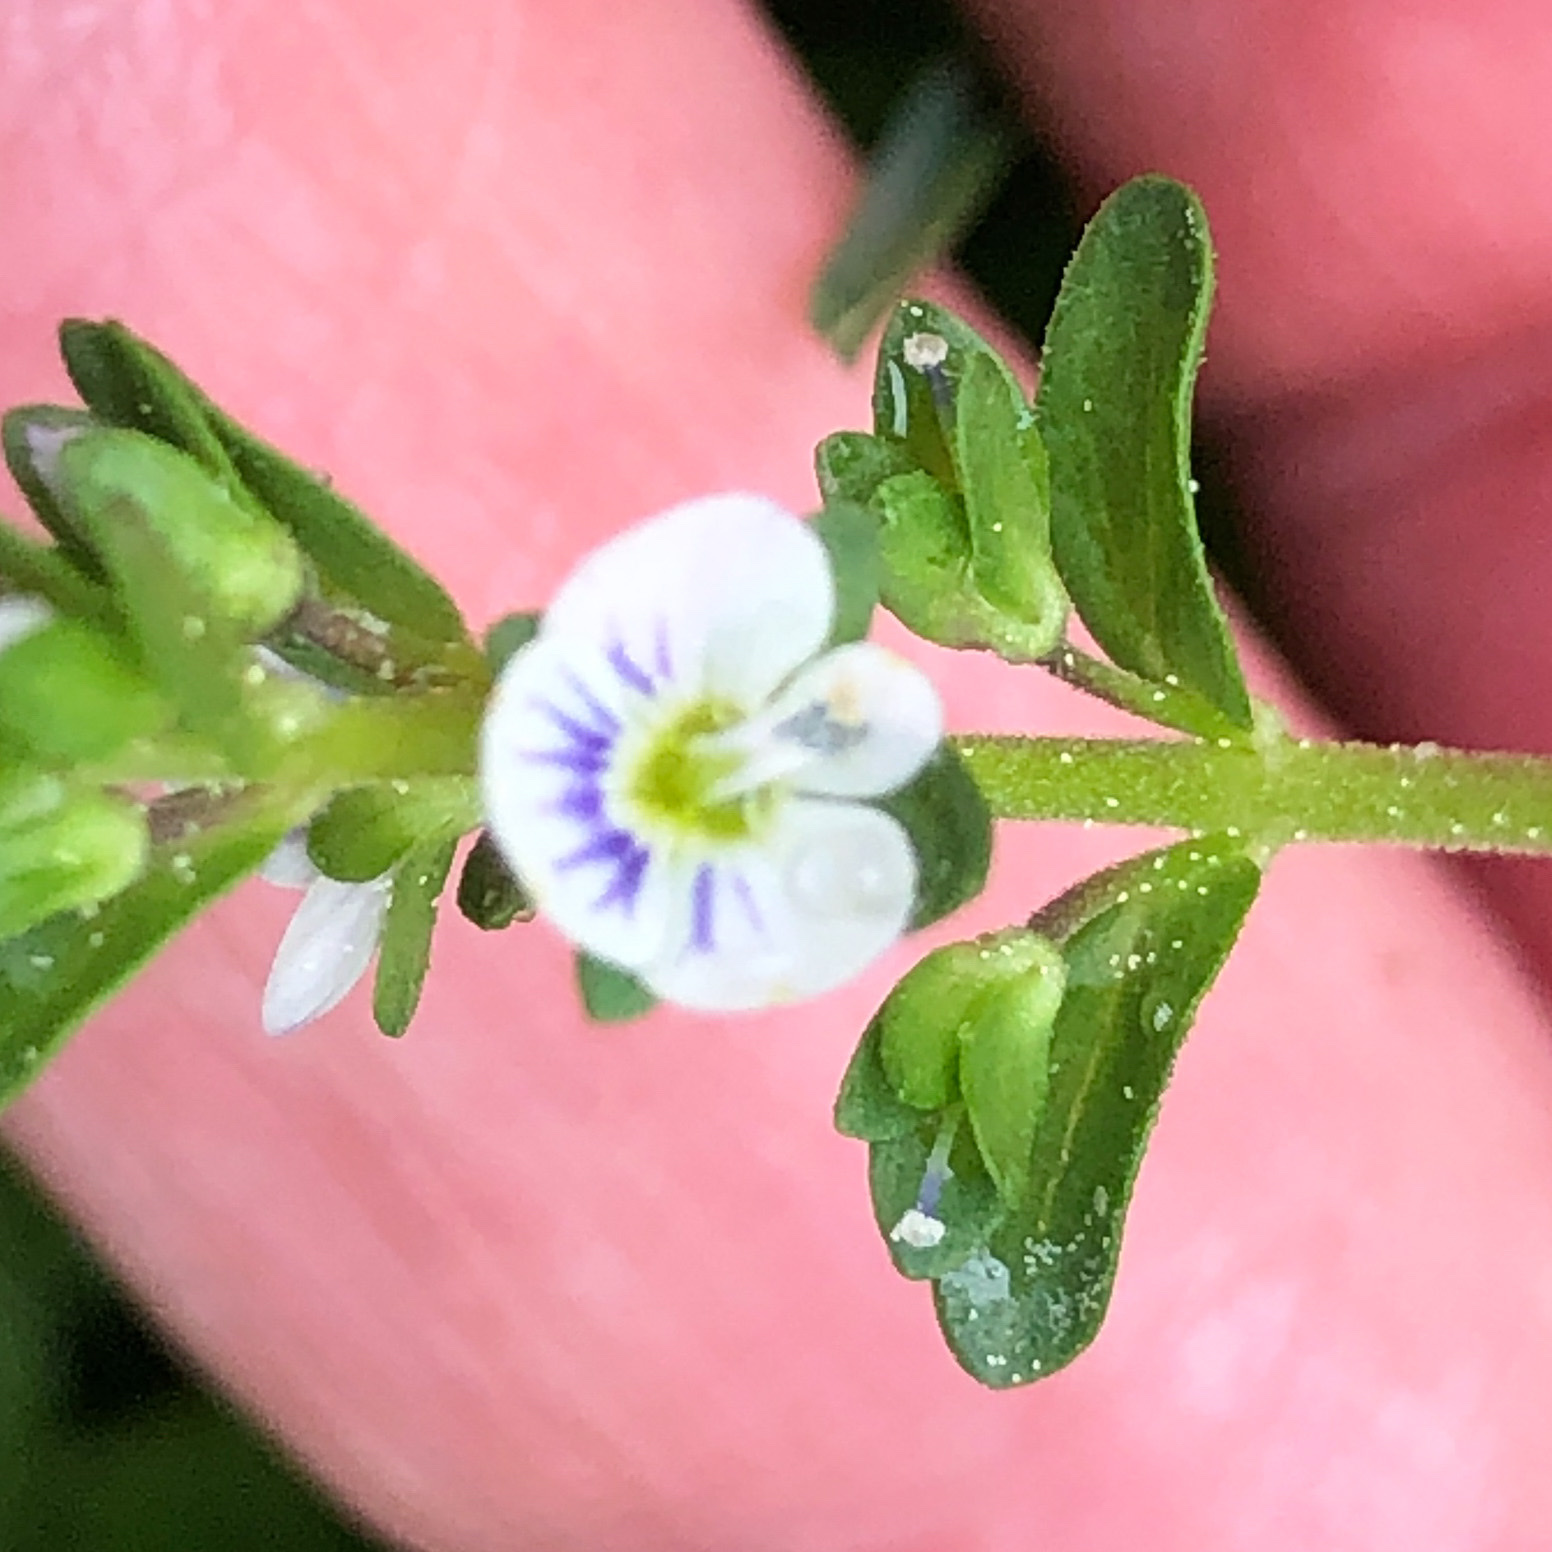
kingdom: Plantae
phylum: Tracheophyta
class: Magnoliopsida
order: Lamiales
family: Plantaginaceae
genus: Veronica
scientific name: Veronica serpyllifolia
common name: Thyme-leaved speedwell
